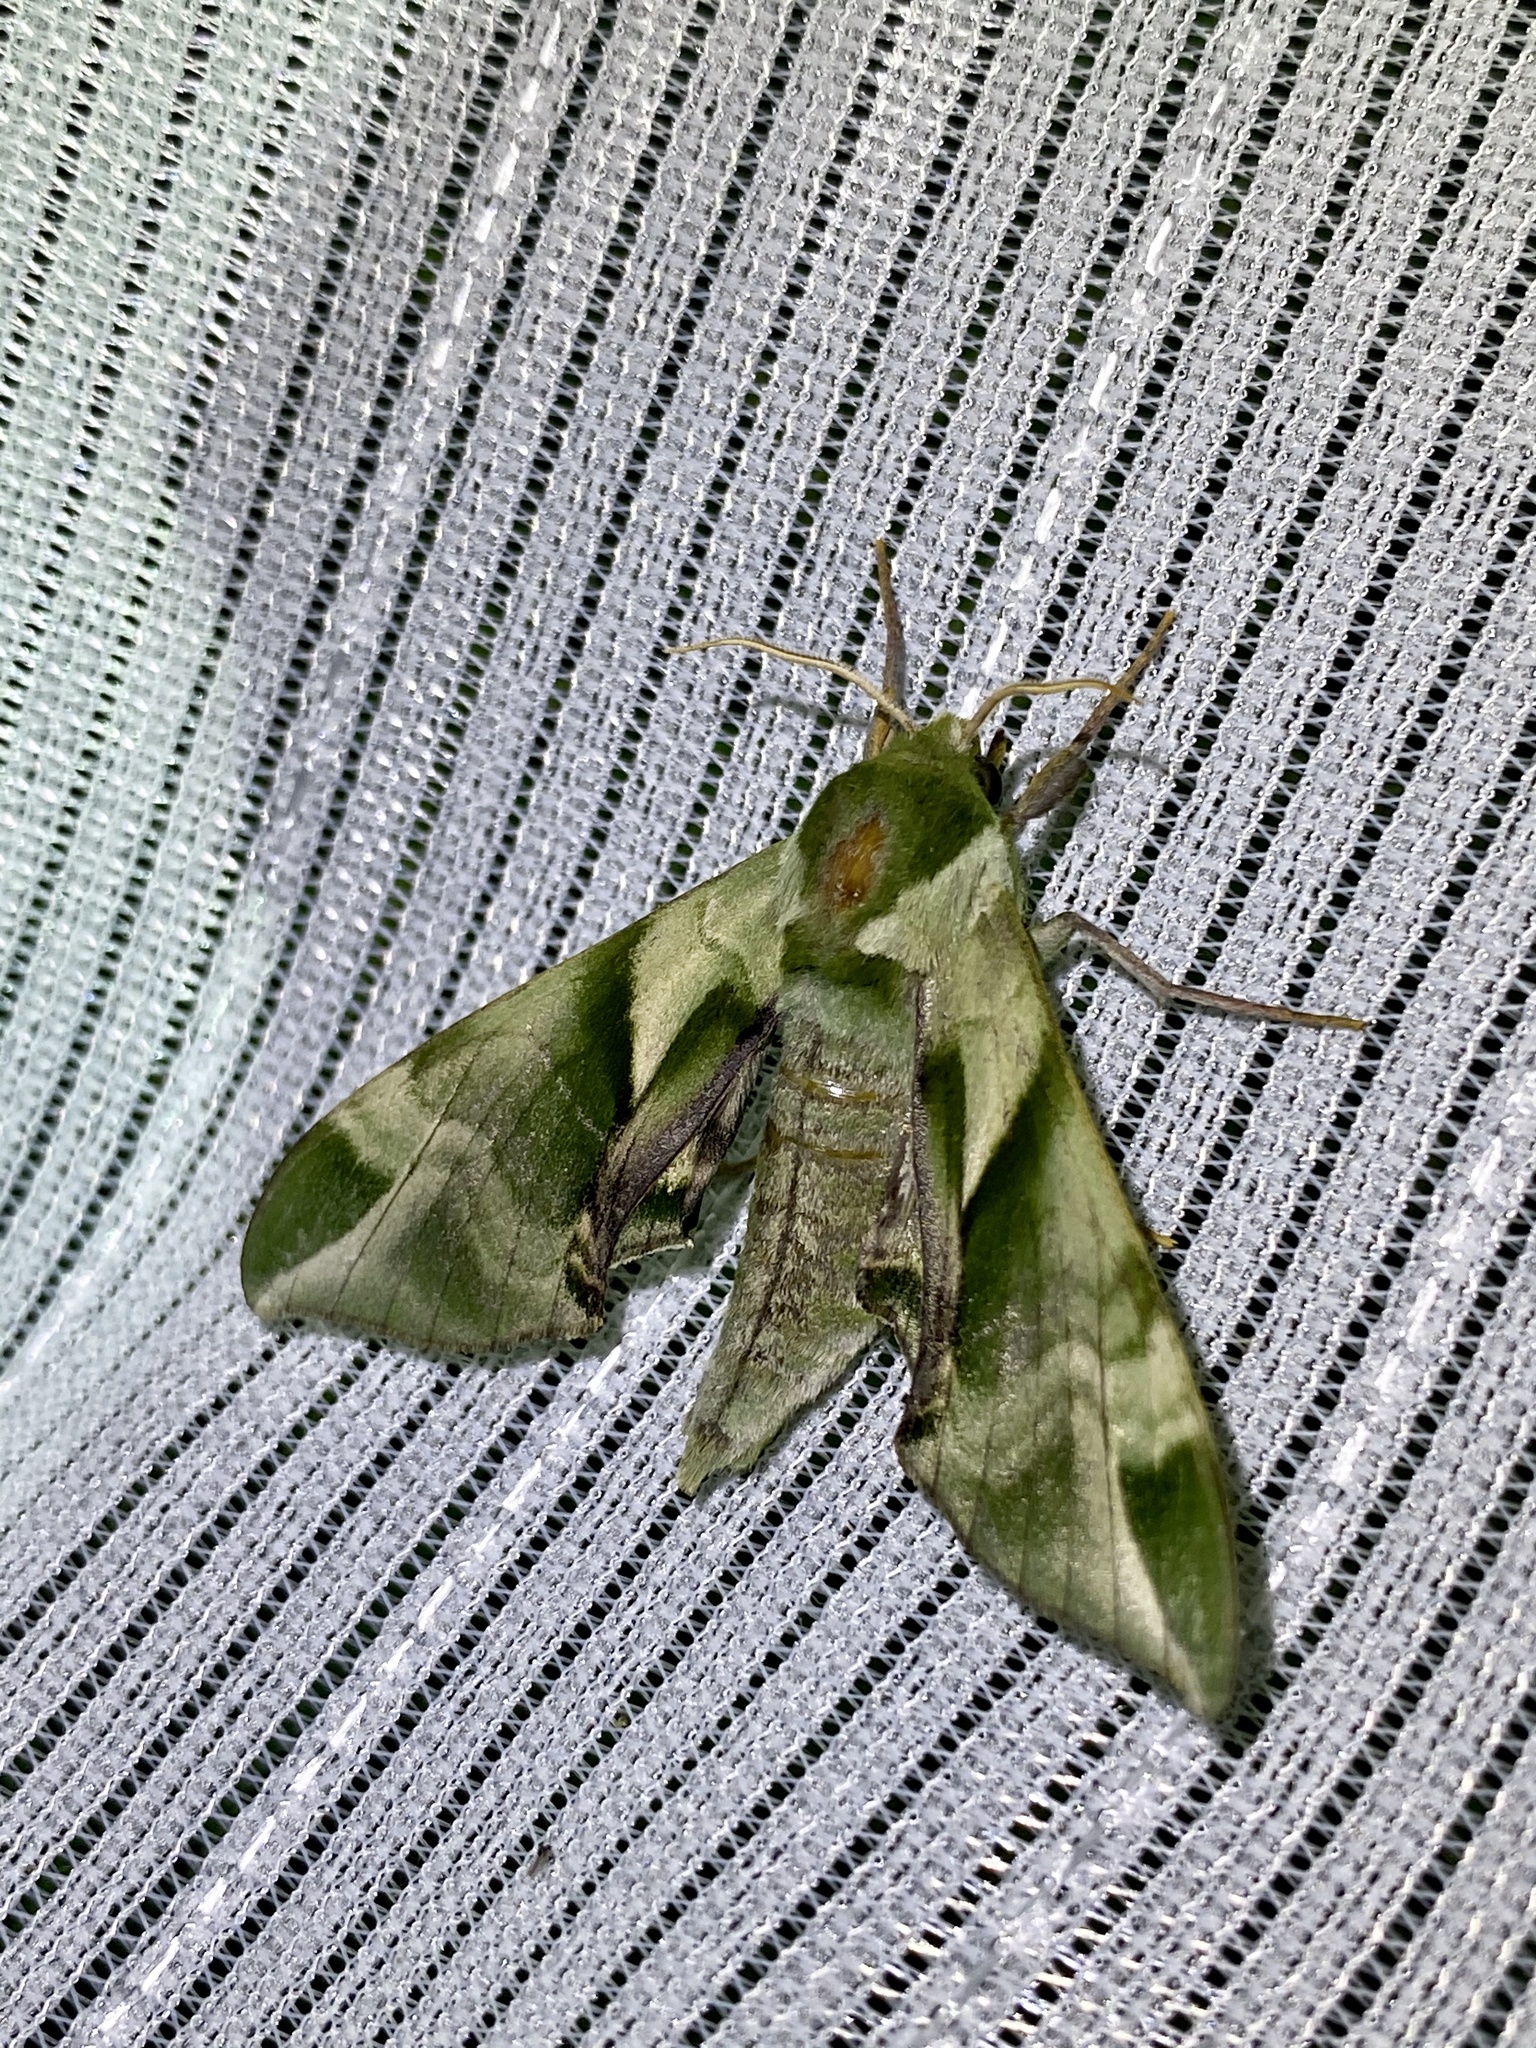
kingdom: Animalia
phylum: Arthropoda
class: Insecta
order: Lepidoptera
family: Sphingidae
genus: Callambulyx
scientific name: Callambulyx tatarinovii
